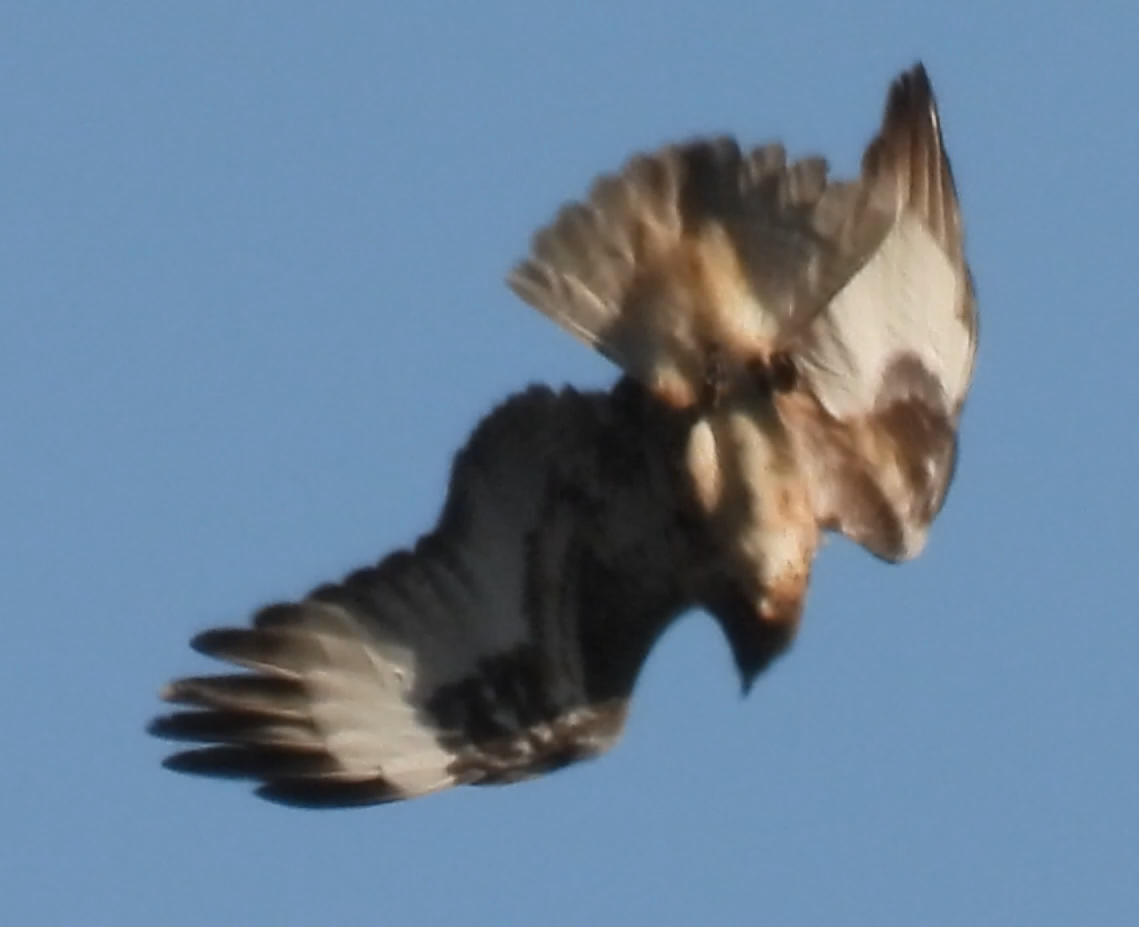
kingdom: Animalia
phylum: Chordata
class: Aves
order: Accipitriformes
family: Accipitridae
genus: Buteo
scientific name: Buteo rufofuscus
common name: Jackal buzzard
